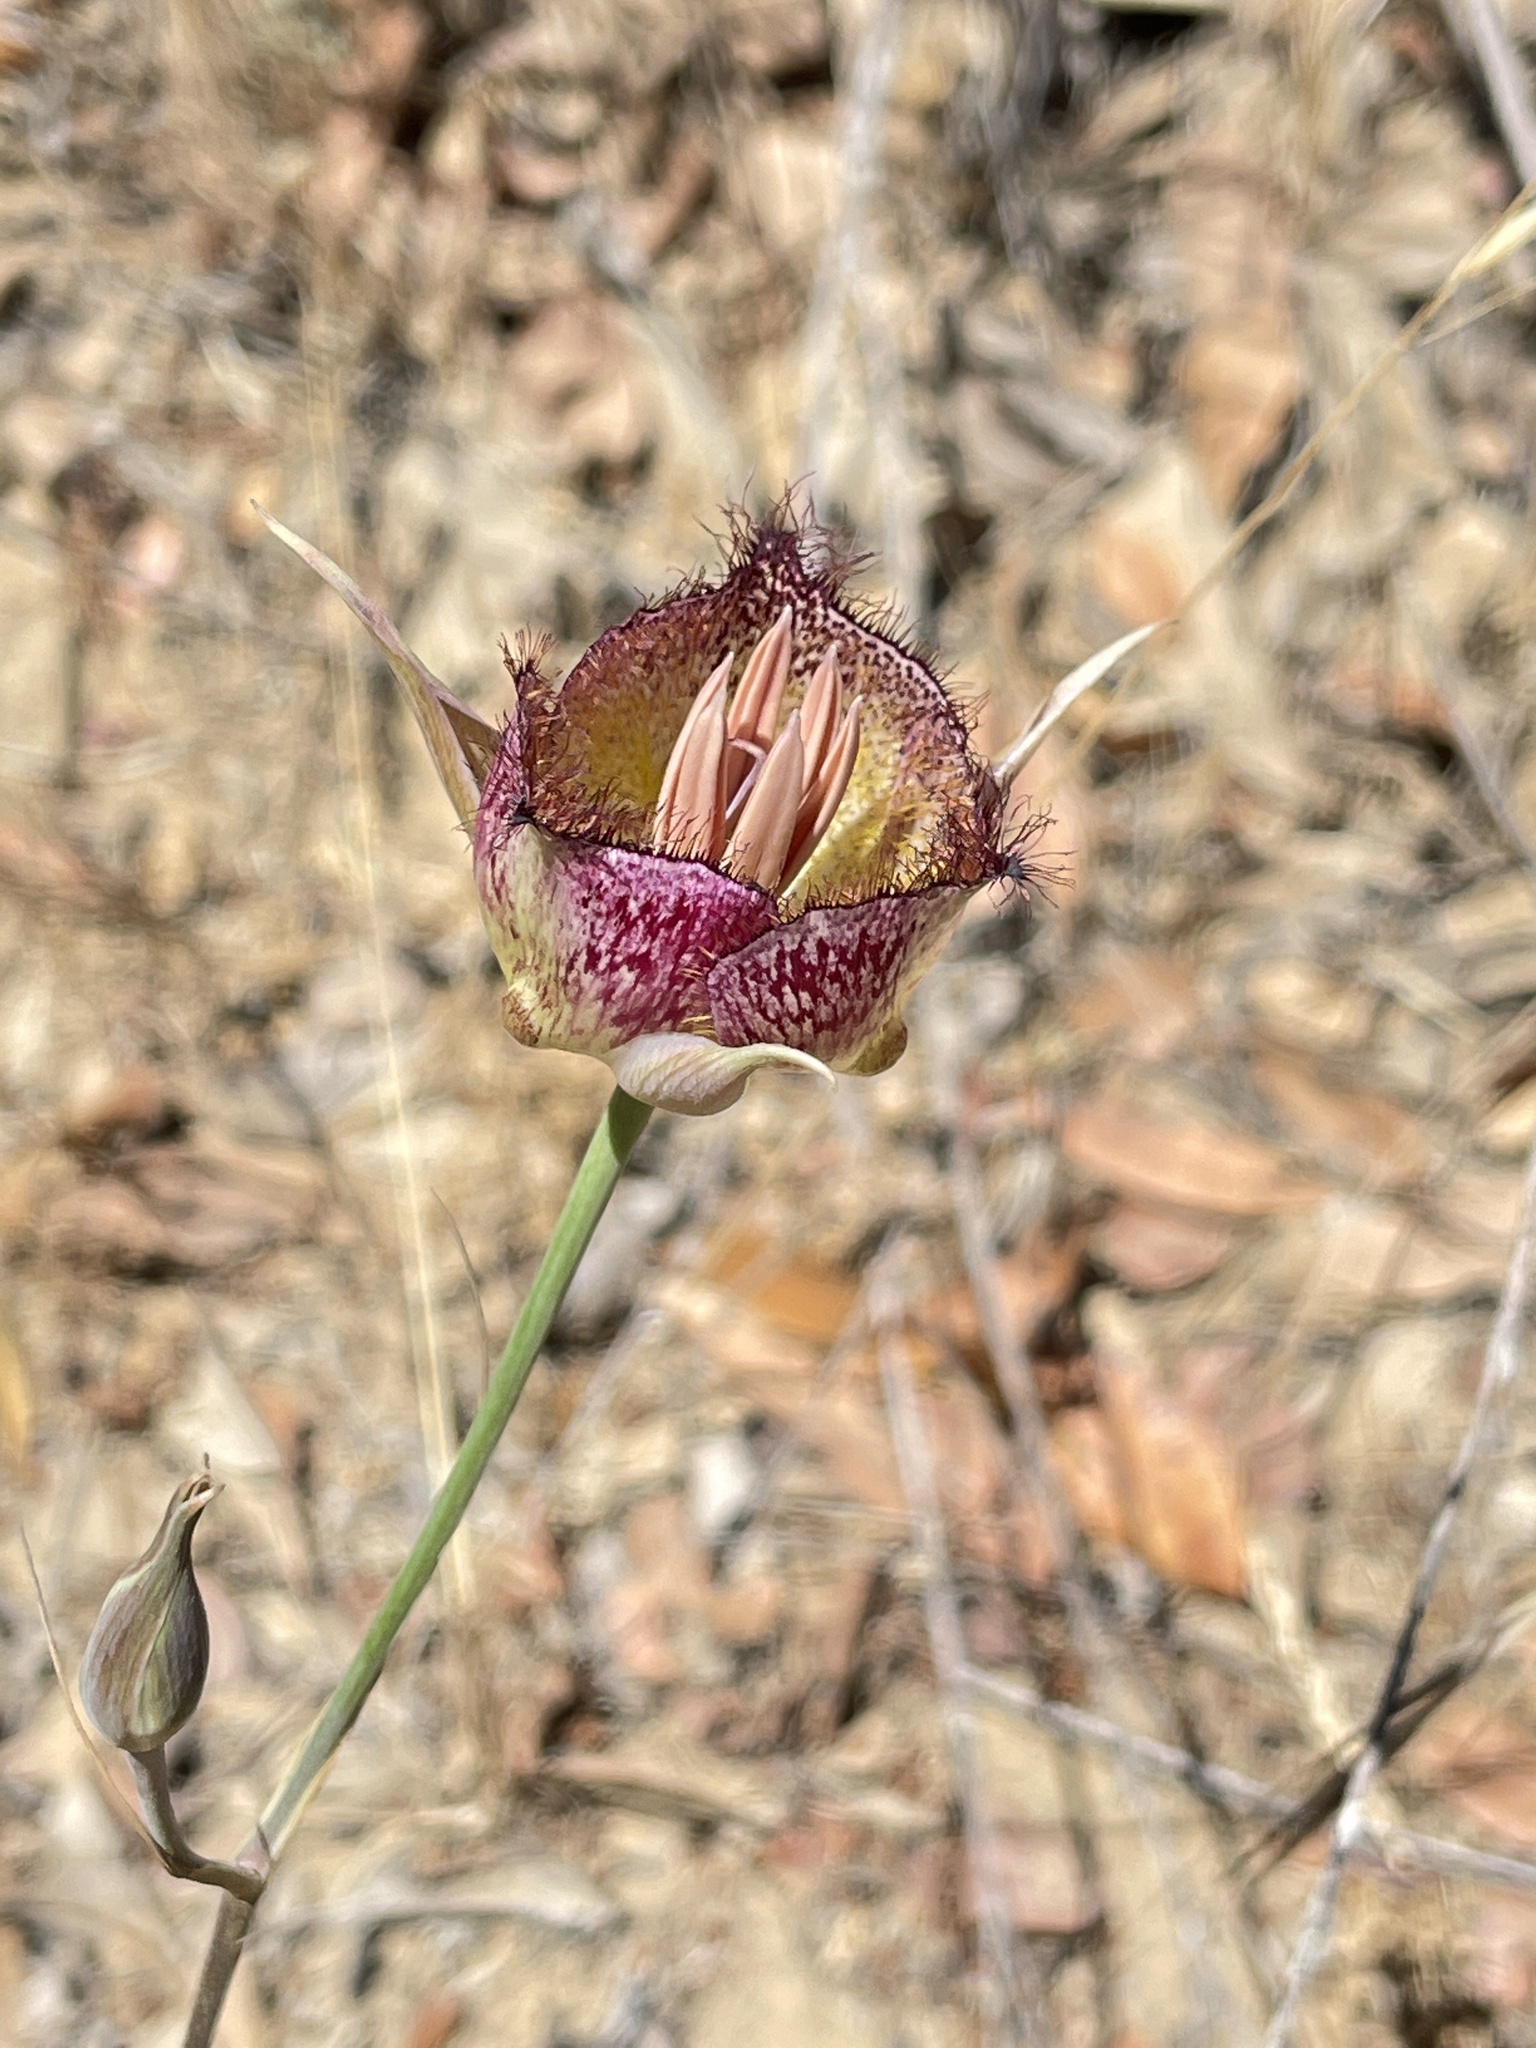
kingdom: Plantae
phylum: Tracheophyta
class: Liliopsida
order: Liliales
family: Liliaceae
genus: Calochortus
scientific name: Calochortus fimbriatus
